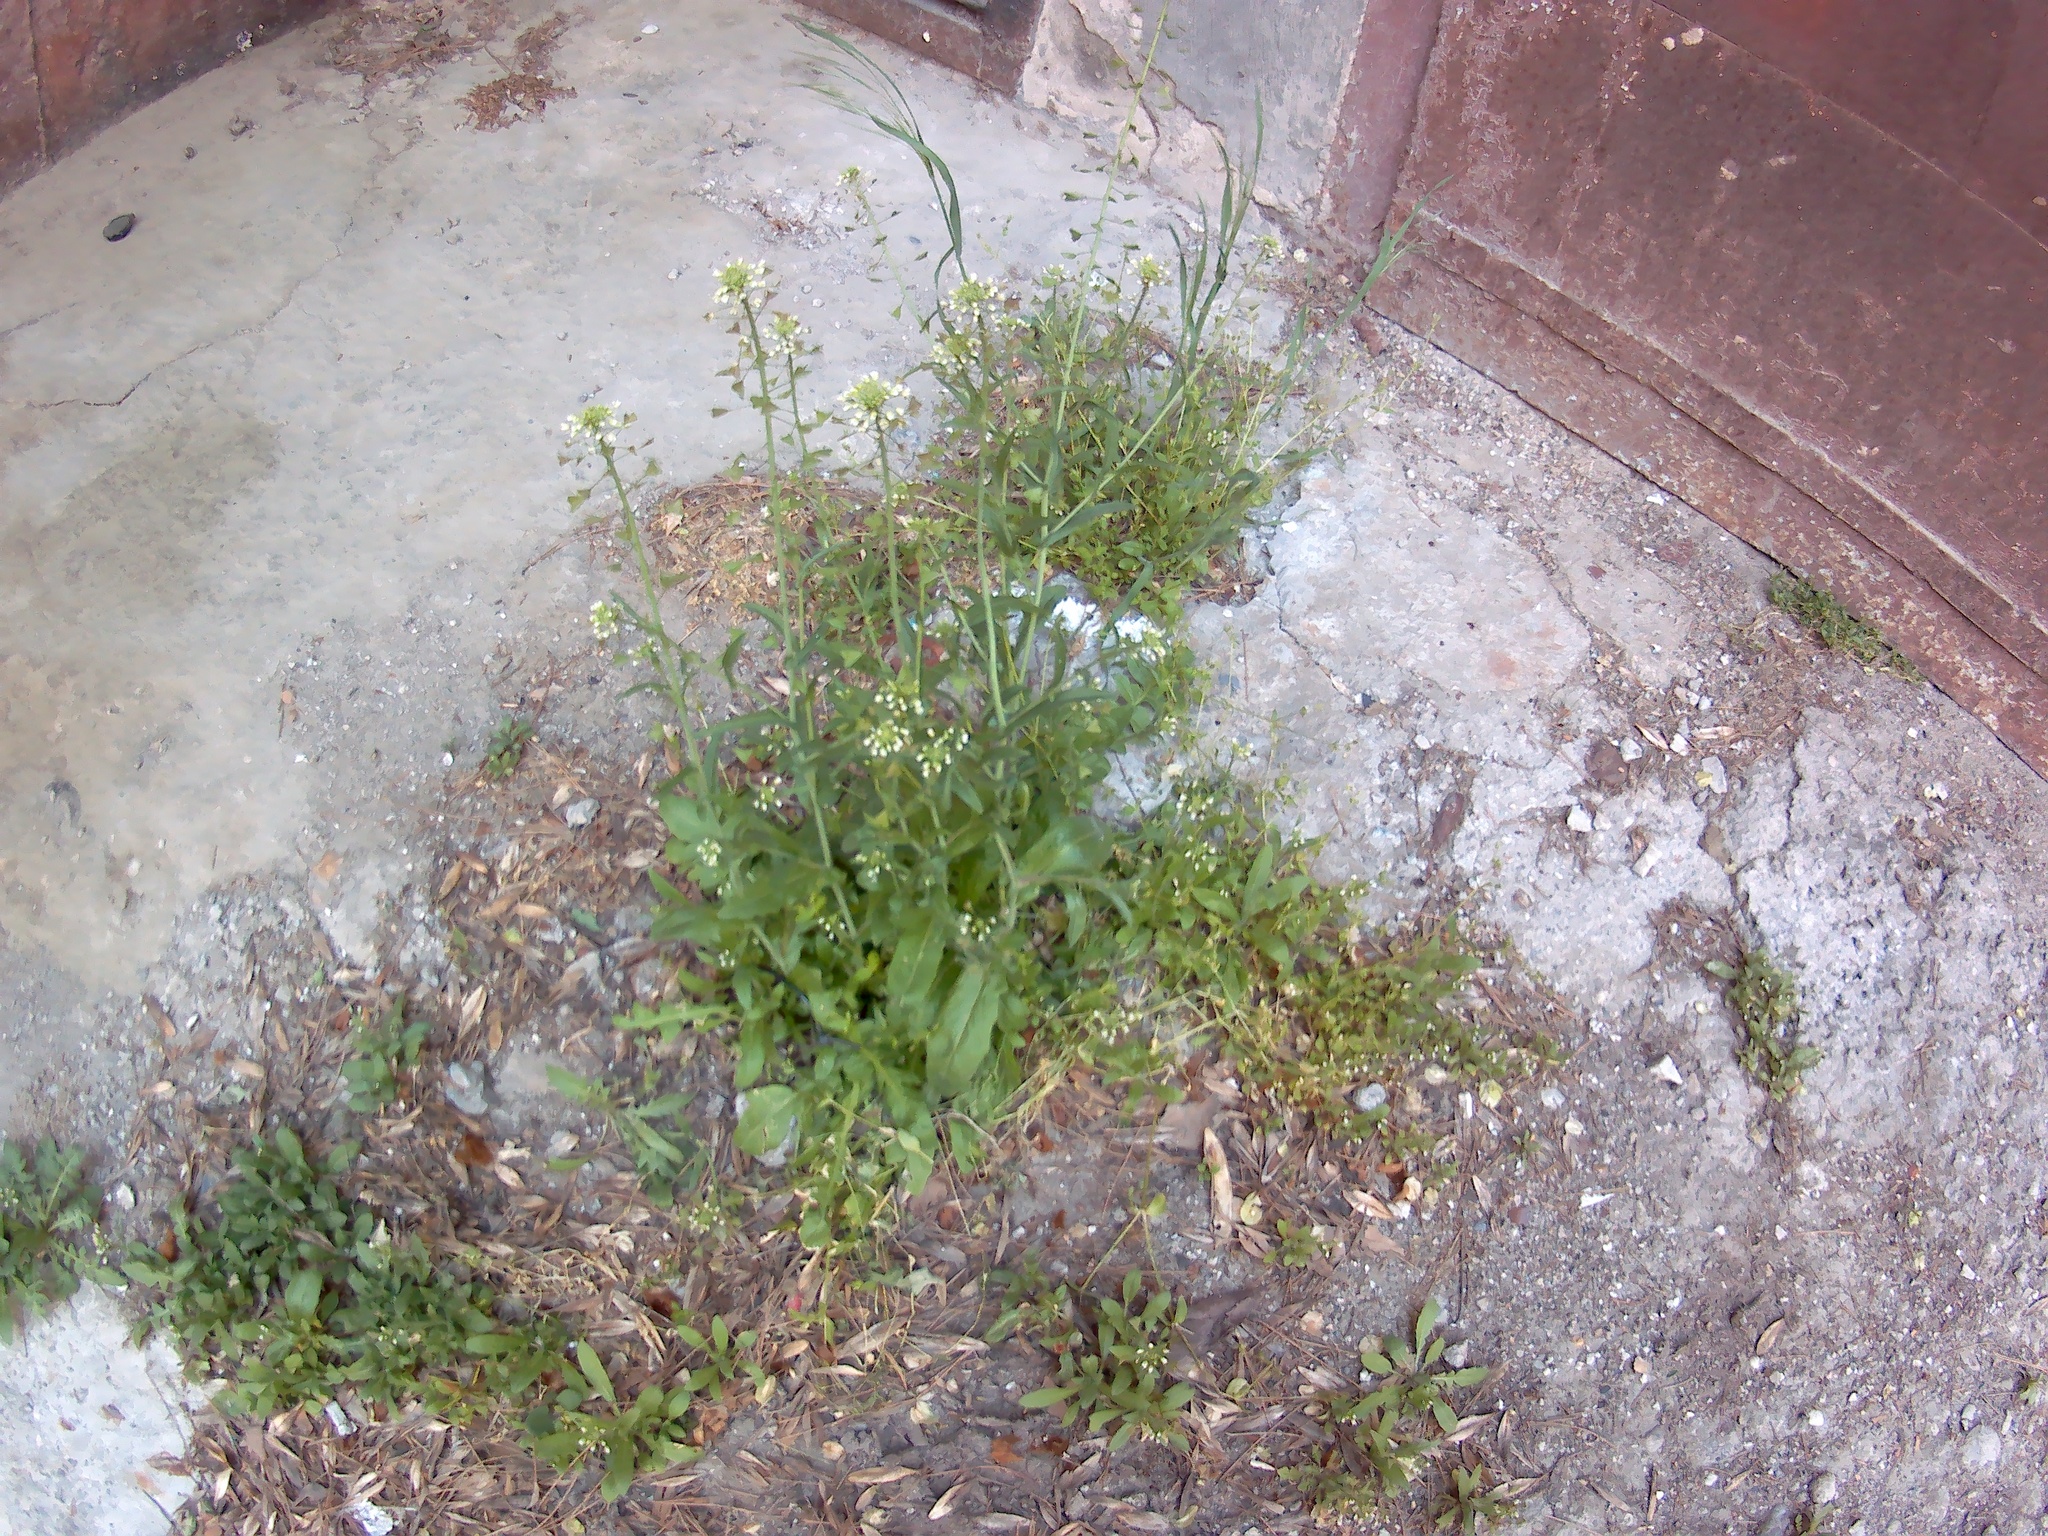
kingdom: Plantae
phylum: Tracheophyta
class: Magnoliopsida
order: Brassicales
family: Brassicaceae
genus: Capsella
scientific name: Capsella bursa-pastoris
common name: Shepherd's purse
